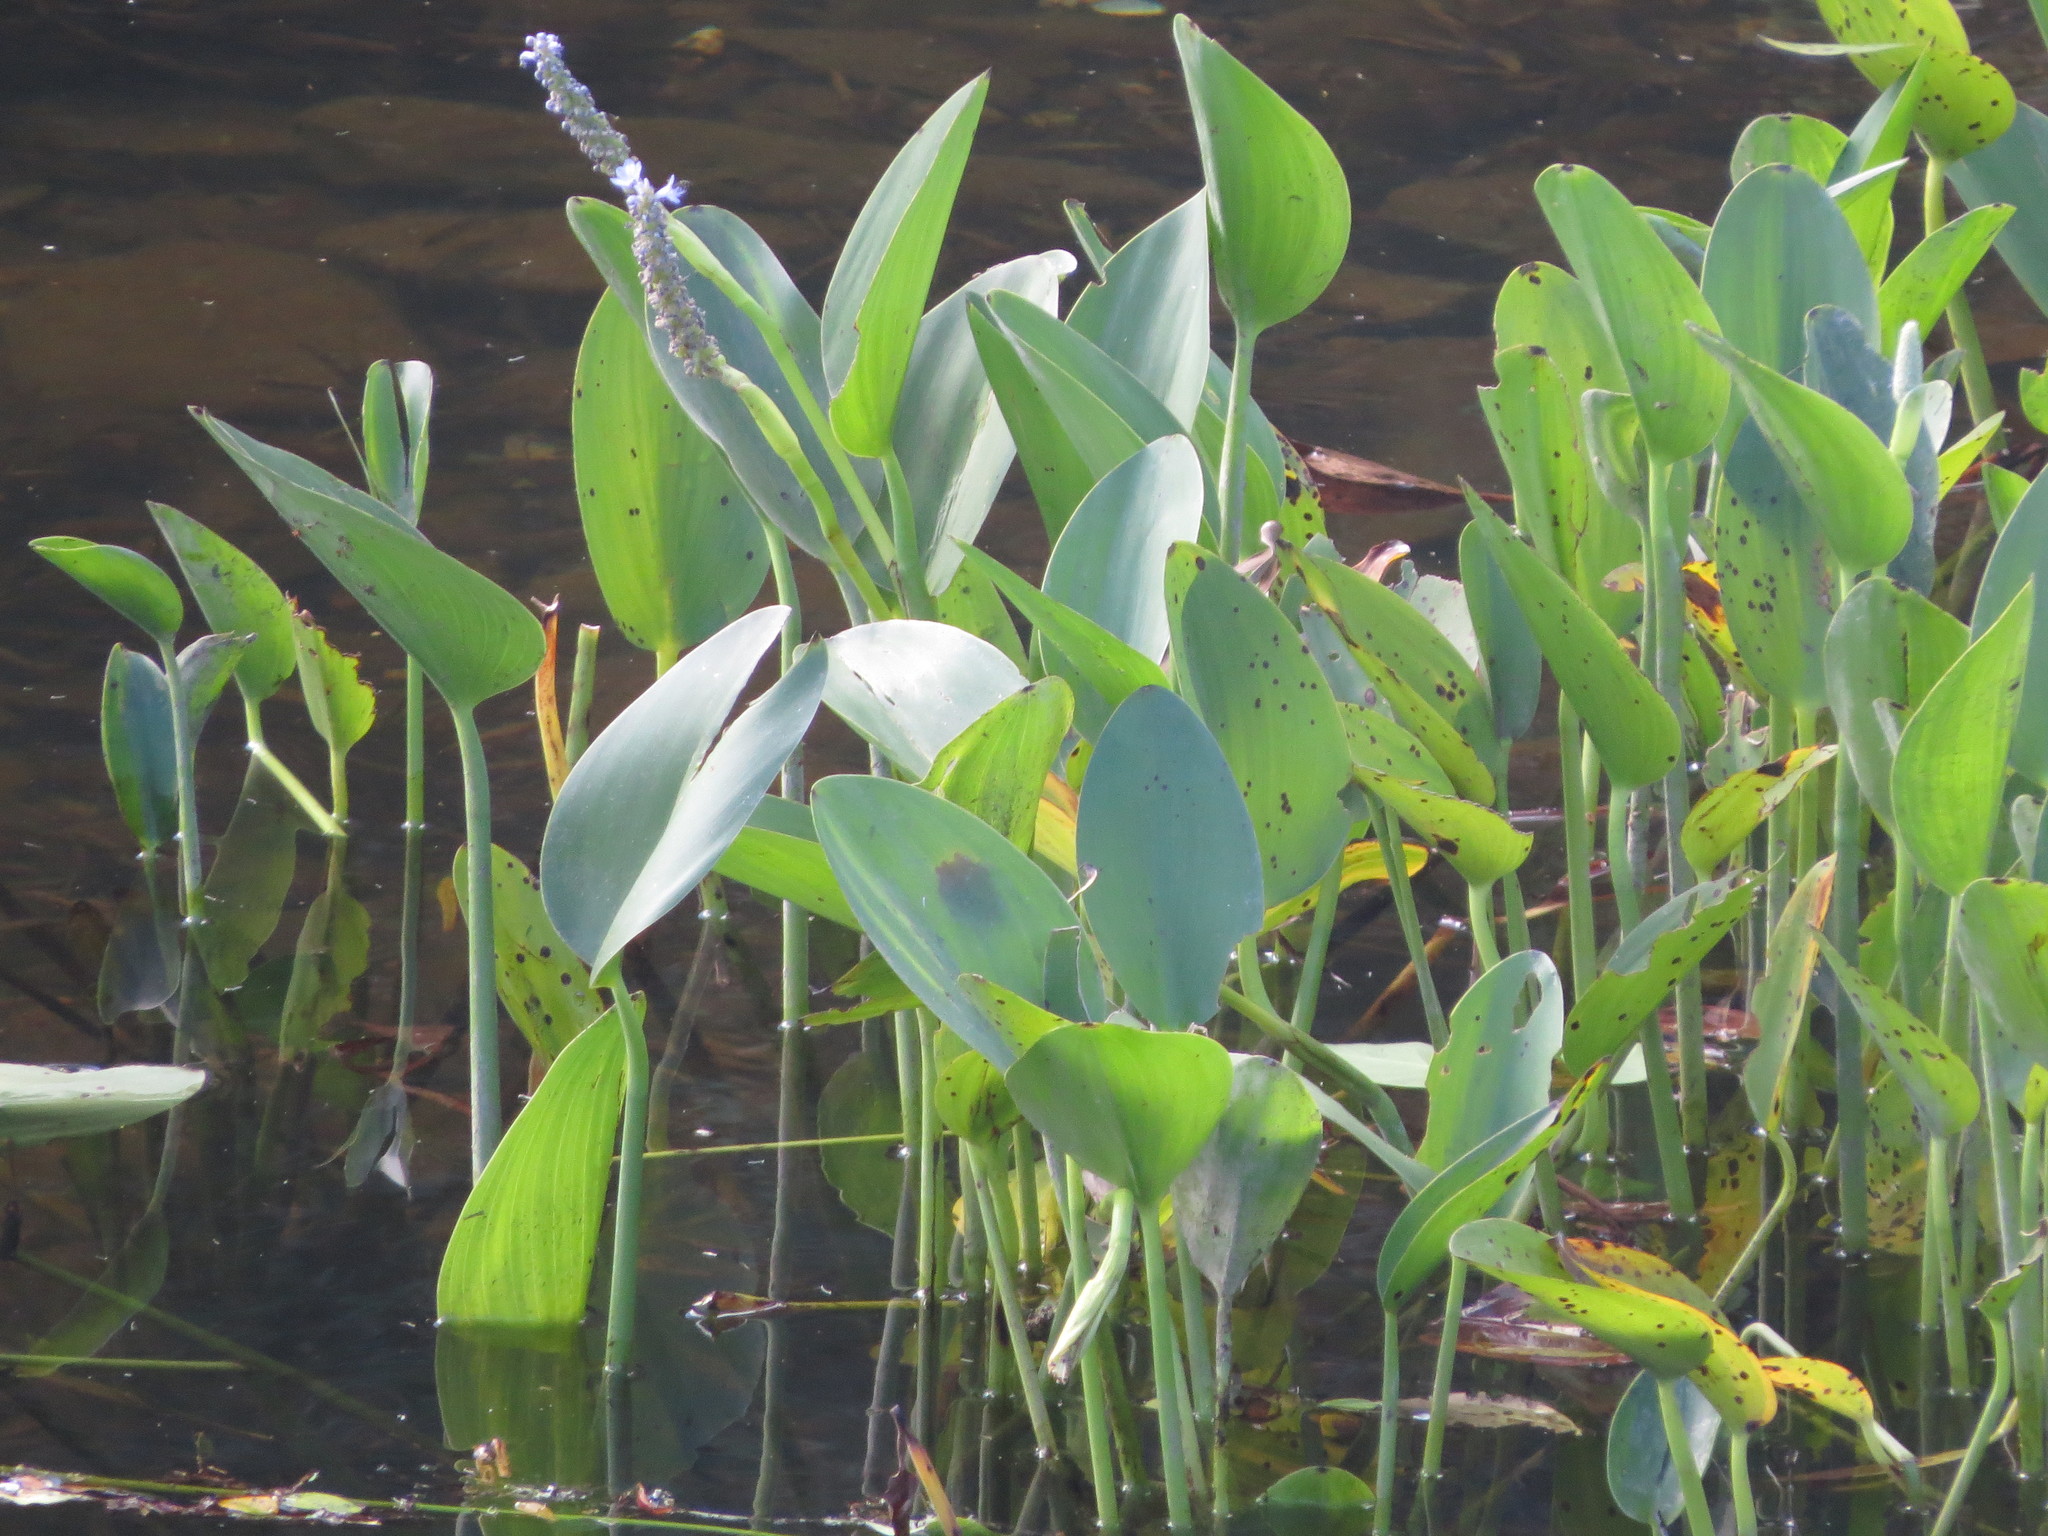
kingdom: Plantae
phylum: Tracheophyta
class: Liliopsida
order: Commelinales
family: Pontederiaceae
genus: Pontederia
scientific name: Pontederia cordata
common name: Pickerelweed
